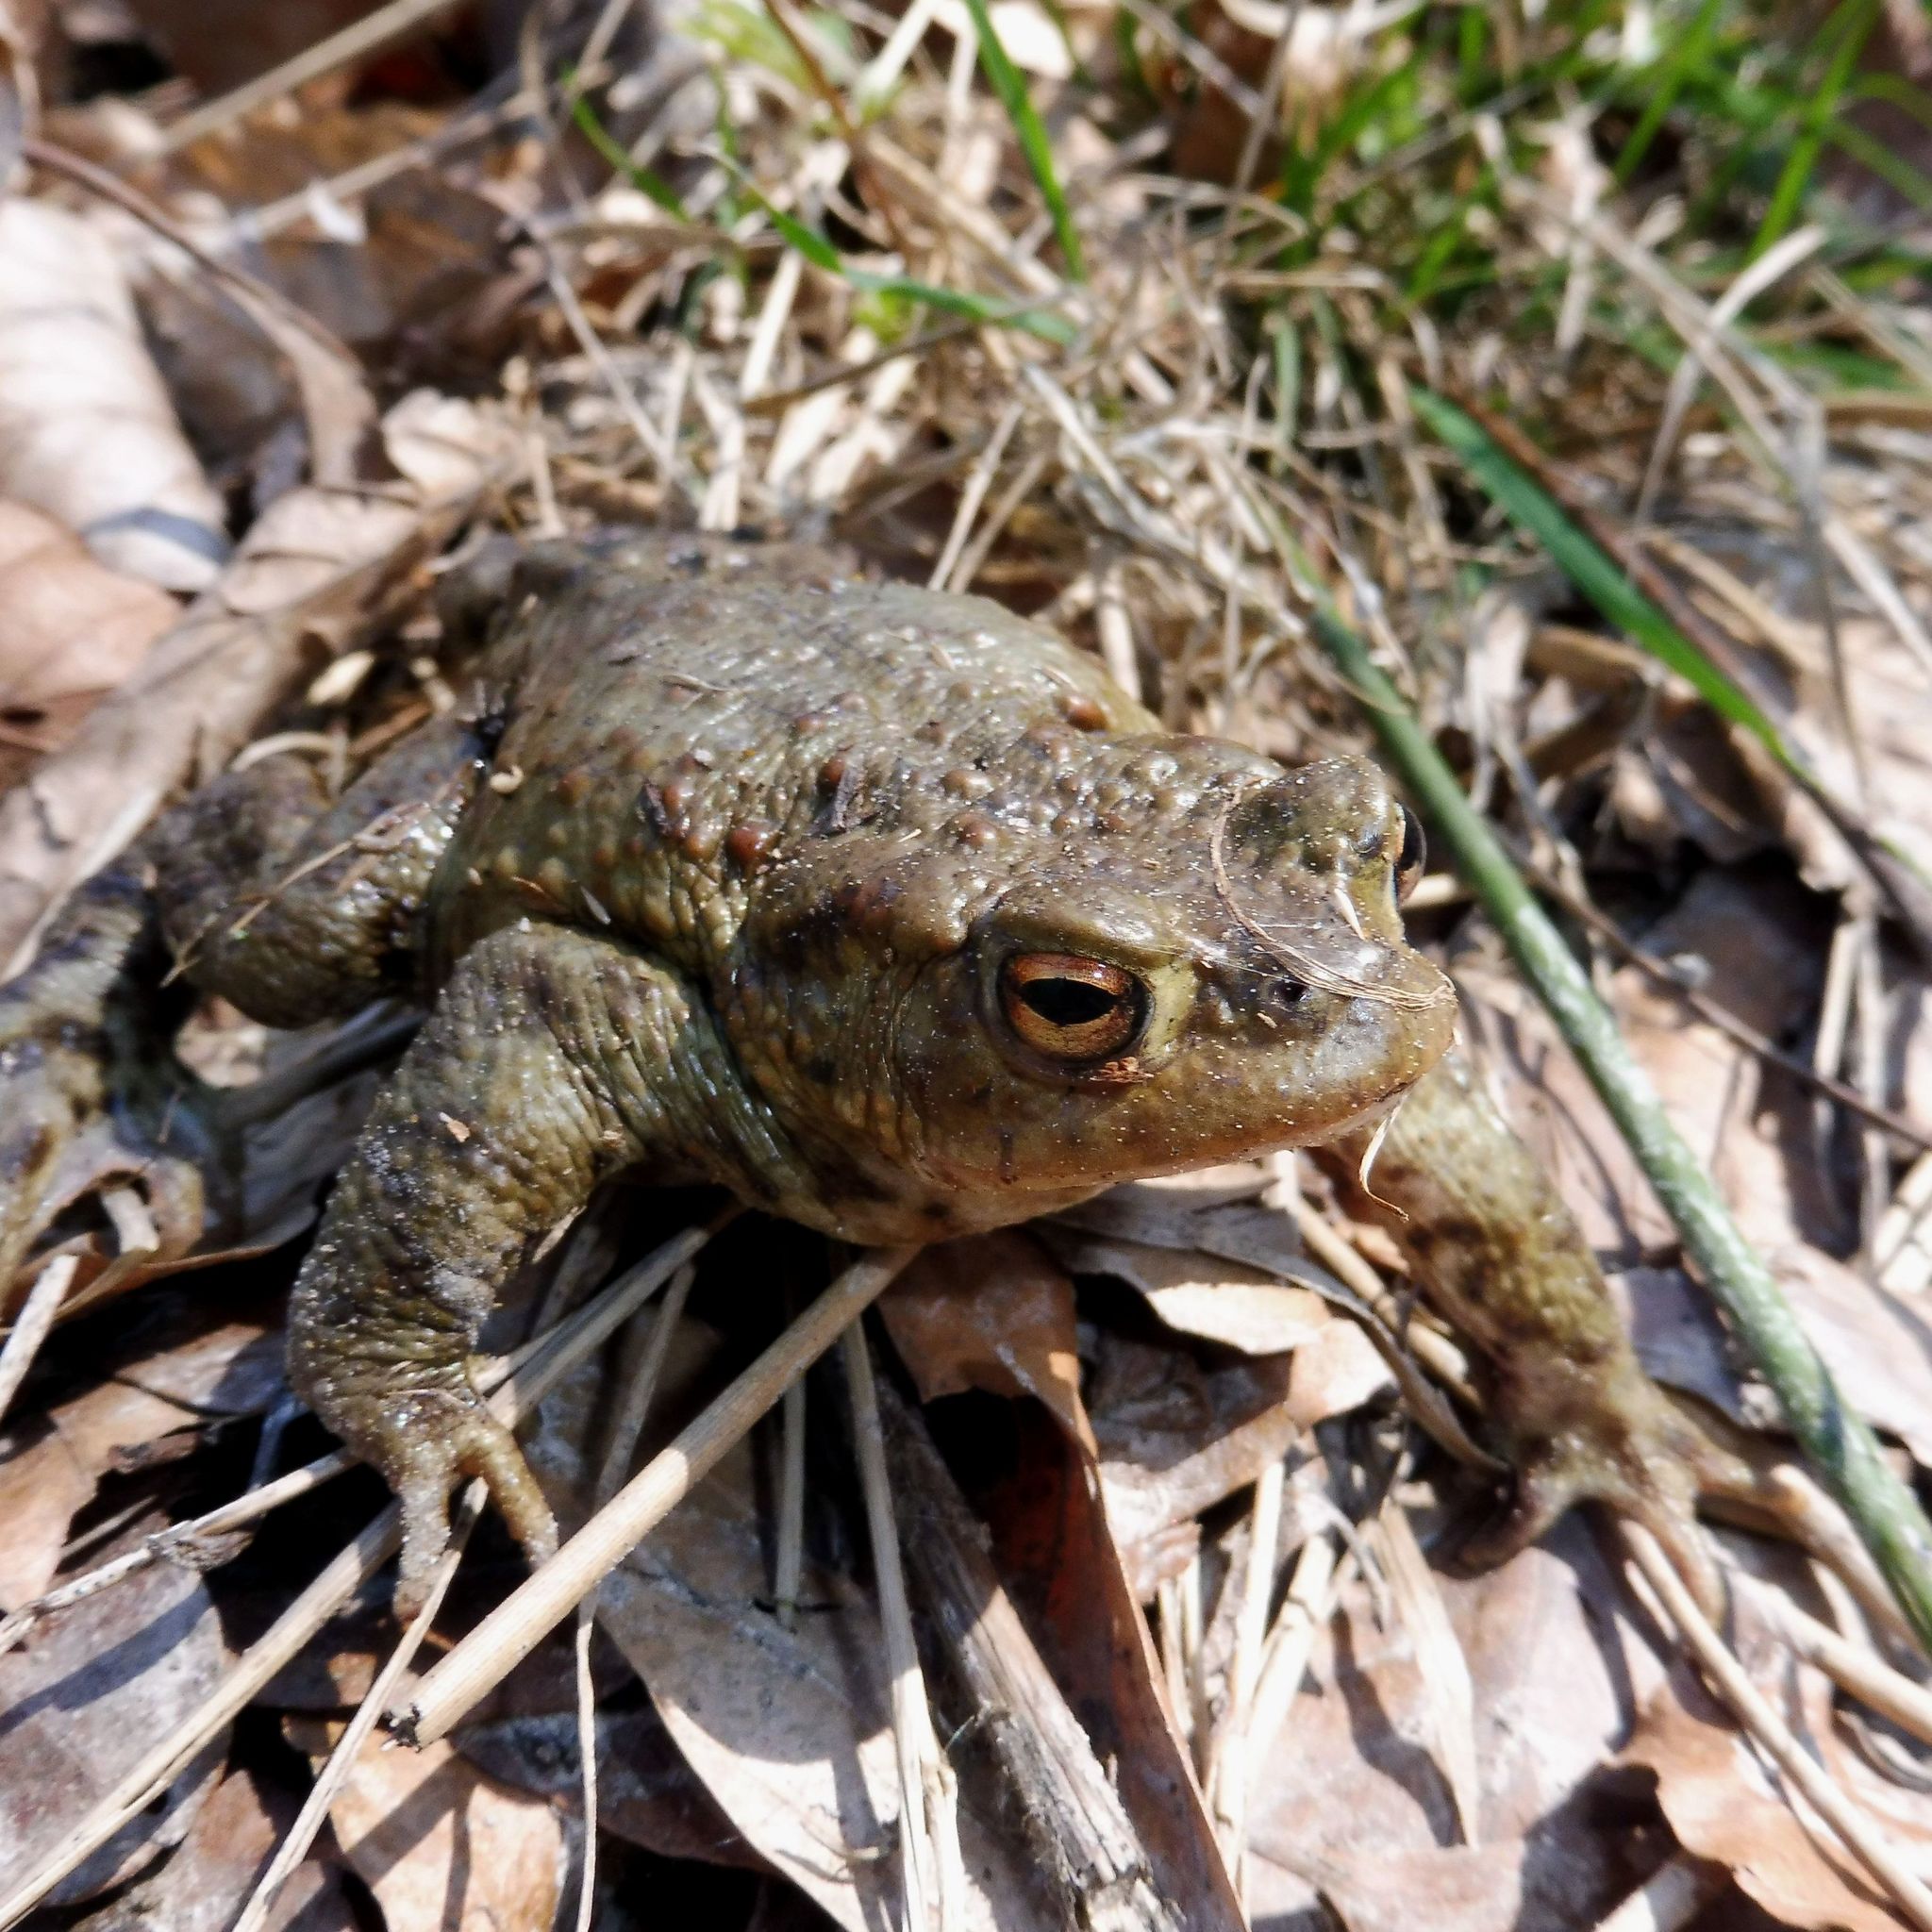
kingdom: Animalia
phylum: Chordata
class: Amphibia
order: Anura
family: Bufonidae
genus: Bufo
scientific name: Bufo bufo
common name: Common toad
